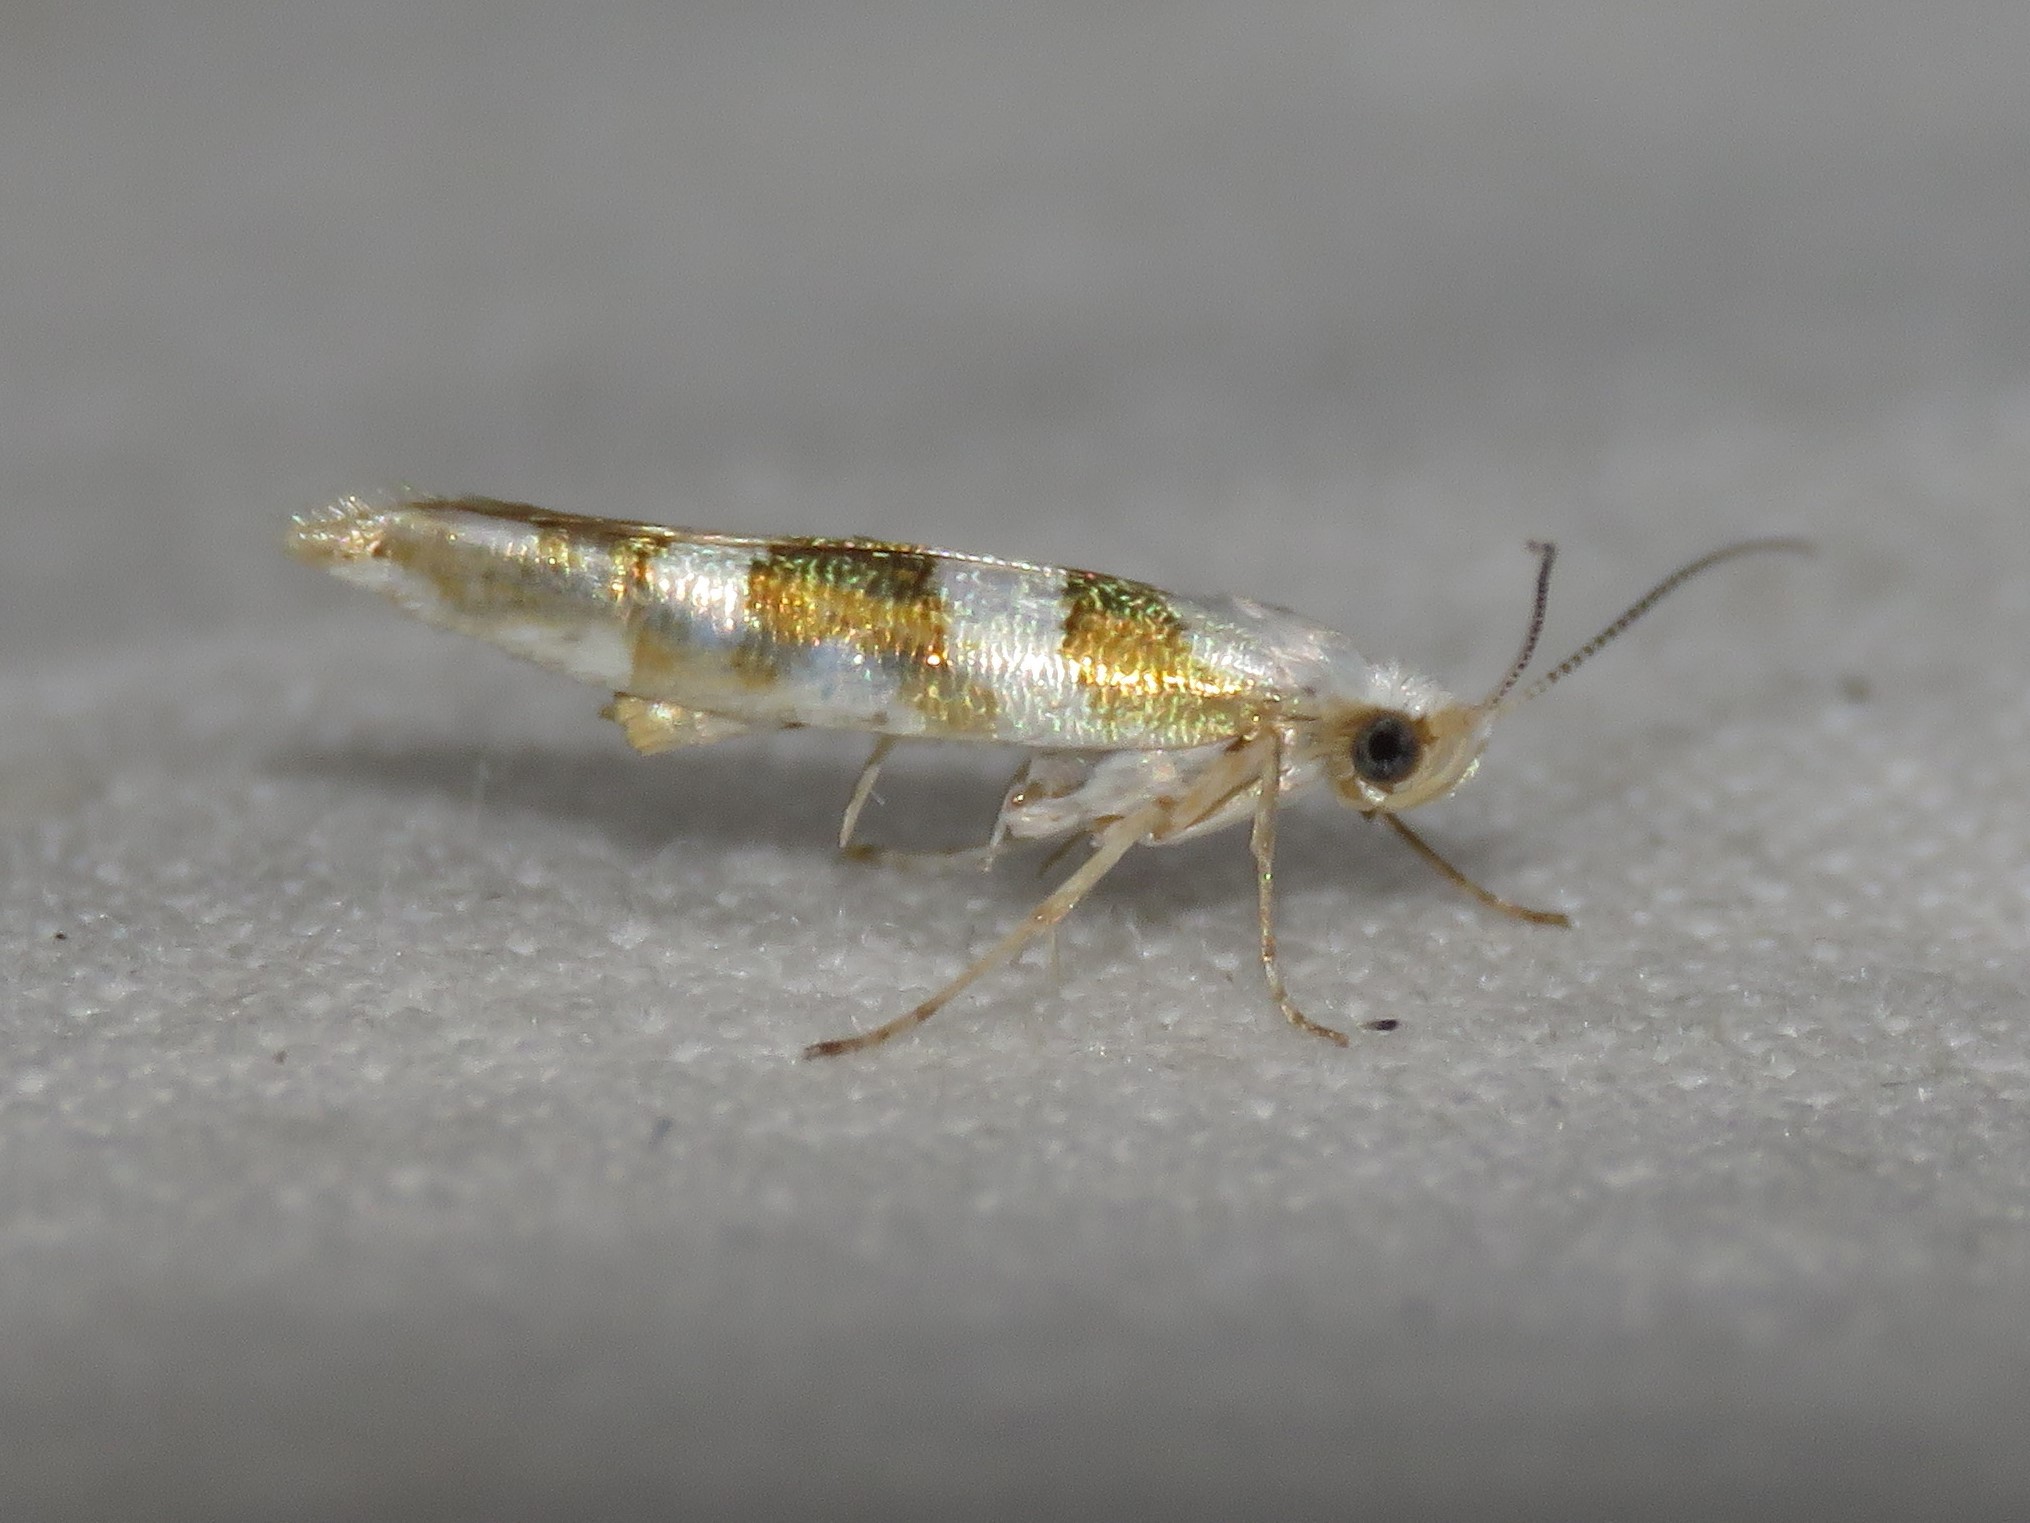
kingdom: Animalia
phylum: Arthropoda
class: Insecta
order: Lepidoptera
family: Argyresthiidae
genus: Argyresthia
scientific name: Argyresthia calliphanes
